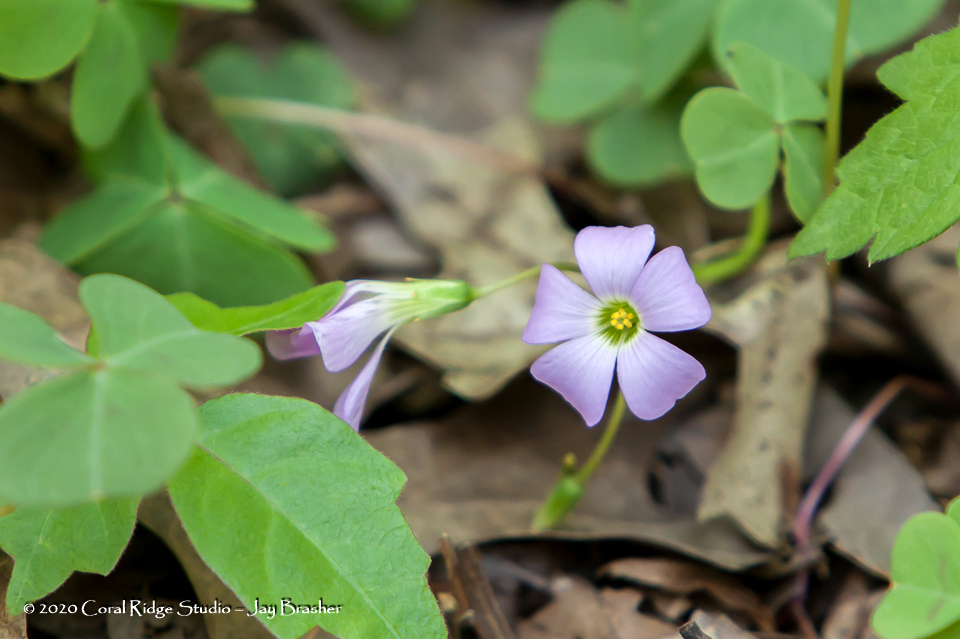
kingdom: Plantae
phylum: Tracheophyta
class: Magnoliopsida
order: Oxalidales
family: Oxalidaceae
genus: Oxalis
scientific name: Oxalis violacea
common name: Violet wood-sorrel
